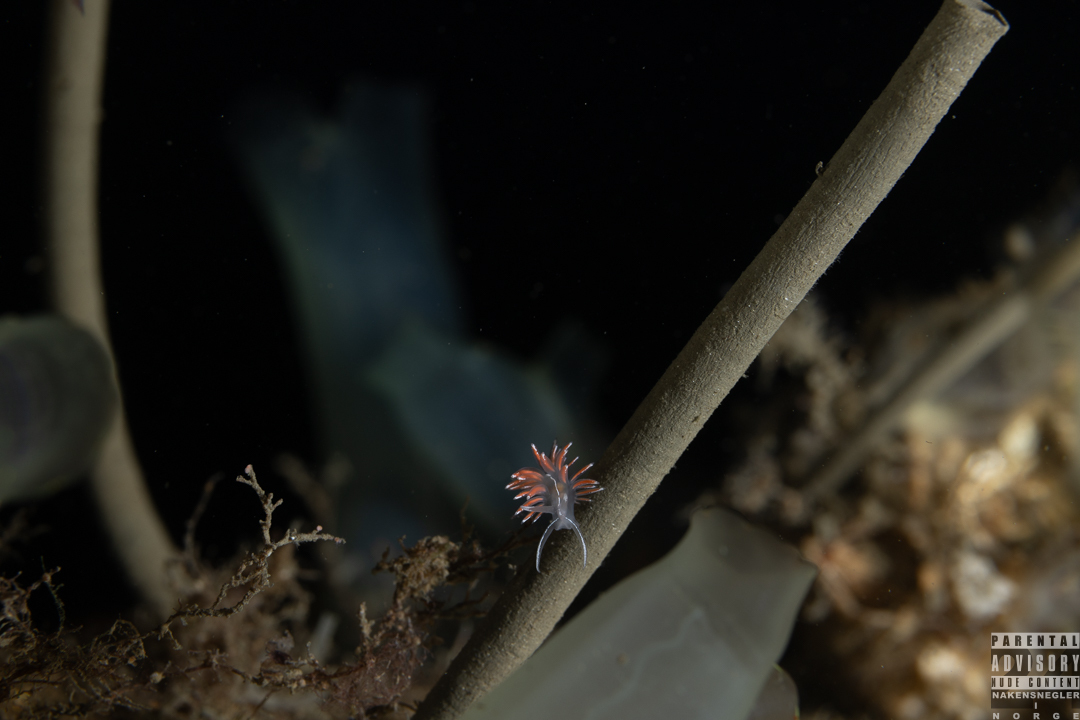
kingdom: Animalia
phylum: Mollusca
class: Gastropoda
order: Nudibranchia
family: Coryphellidae
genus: Coryphella
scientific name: Coryphella lineata
